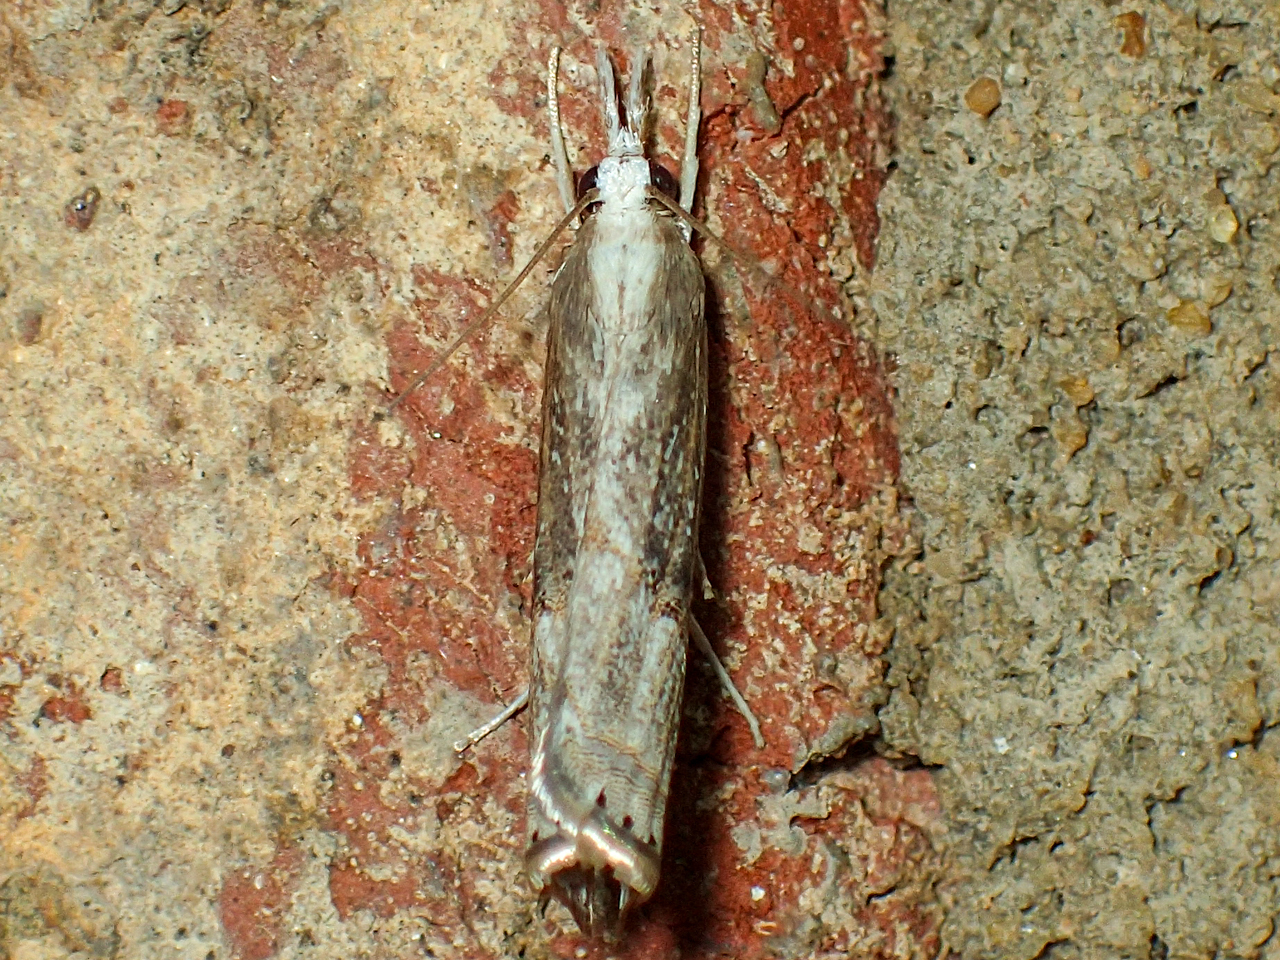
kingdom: Animalia
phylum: Arthropoda
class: Insecta
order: Lepidoptera
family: Crambidae
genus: Parapediasia
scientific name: Parapediasia teterellus
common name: Bluegrass webworm moth
